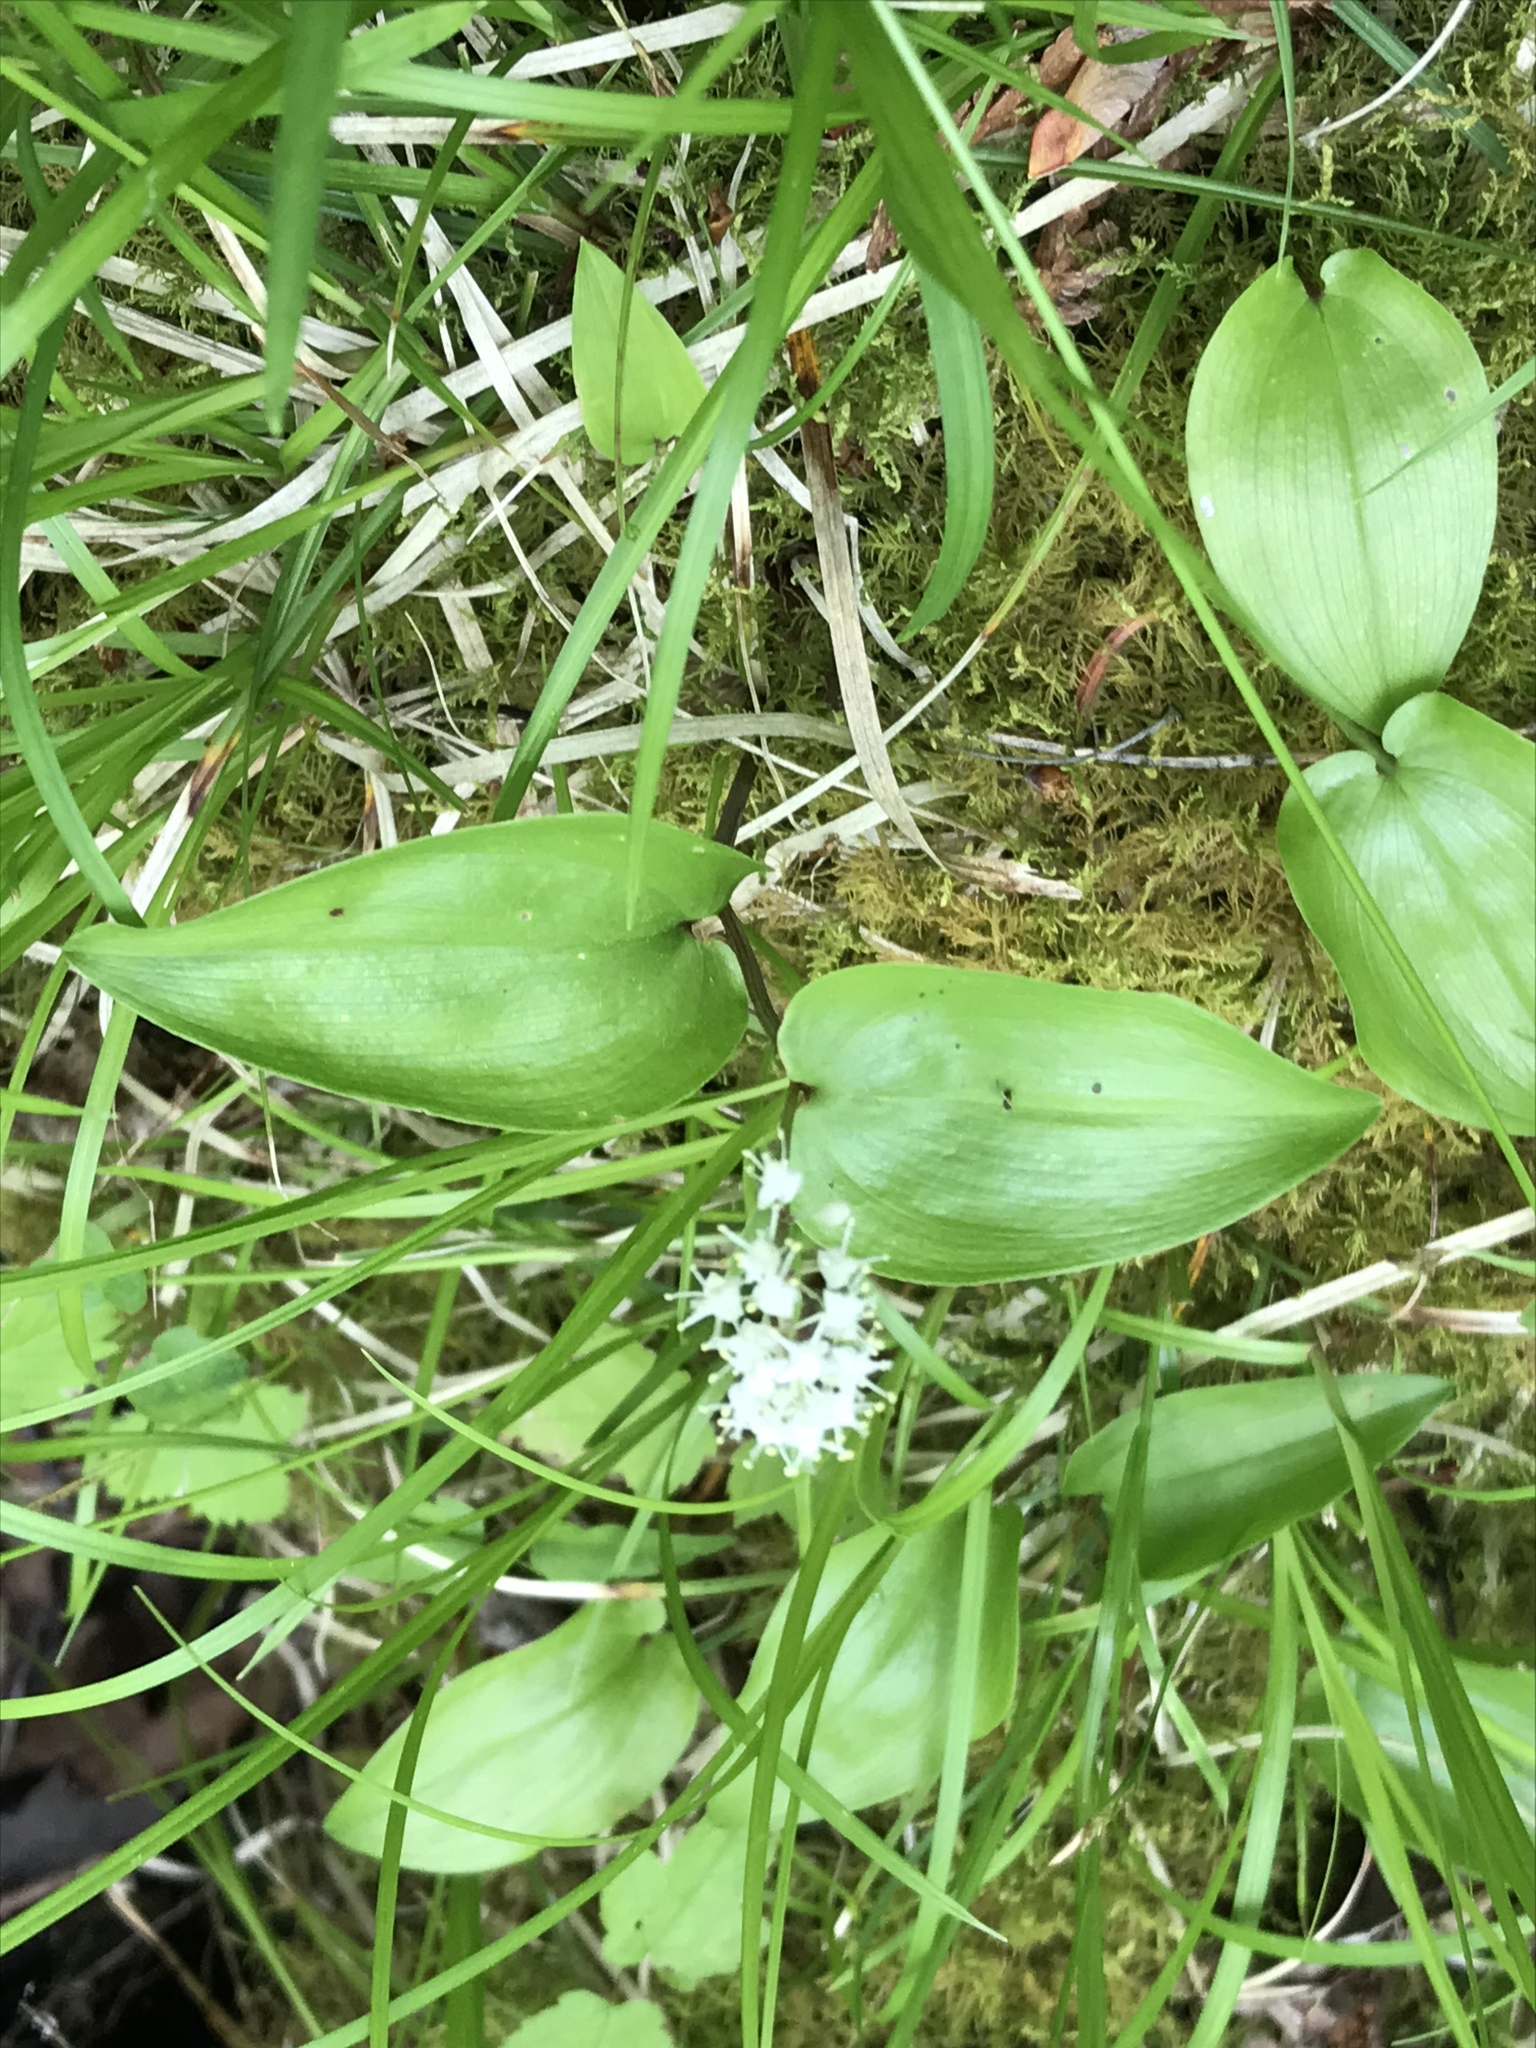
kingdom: Plantae
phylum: Tracheophyta
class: Liliopsida
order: Asparagales
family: Asparagaceae
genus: Maianthemum
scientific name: Maianthemum canadense
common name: False lily-of-the-valley
